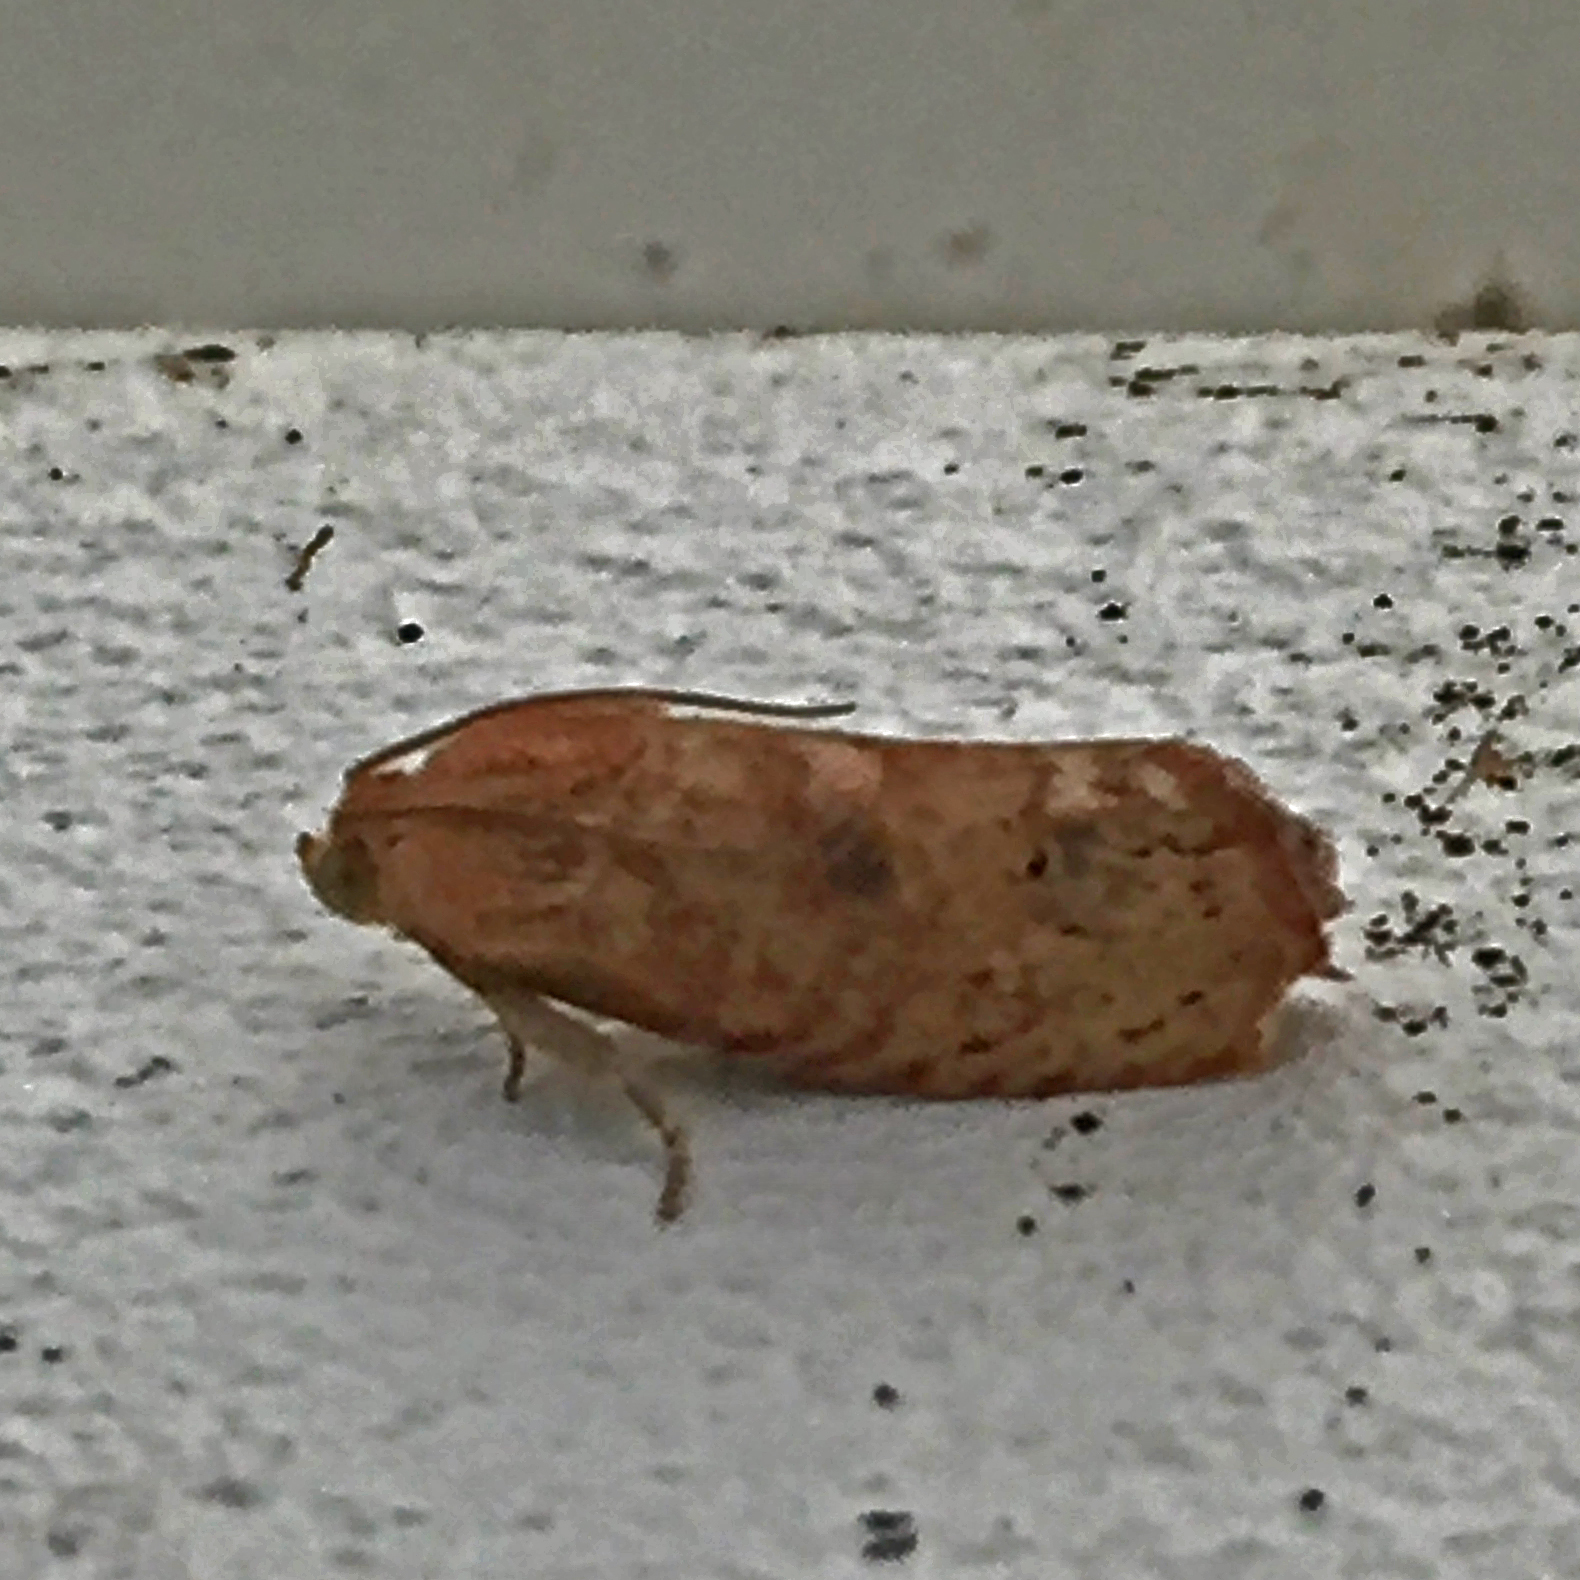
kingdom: Animalia
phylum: Arthropoda
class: Insecta
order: Lepidoptera
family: Tortricidae
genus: Cydia
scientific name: Cydia latiferreana
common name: Filbertworm moth
